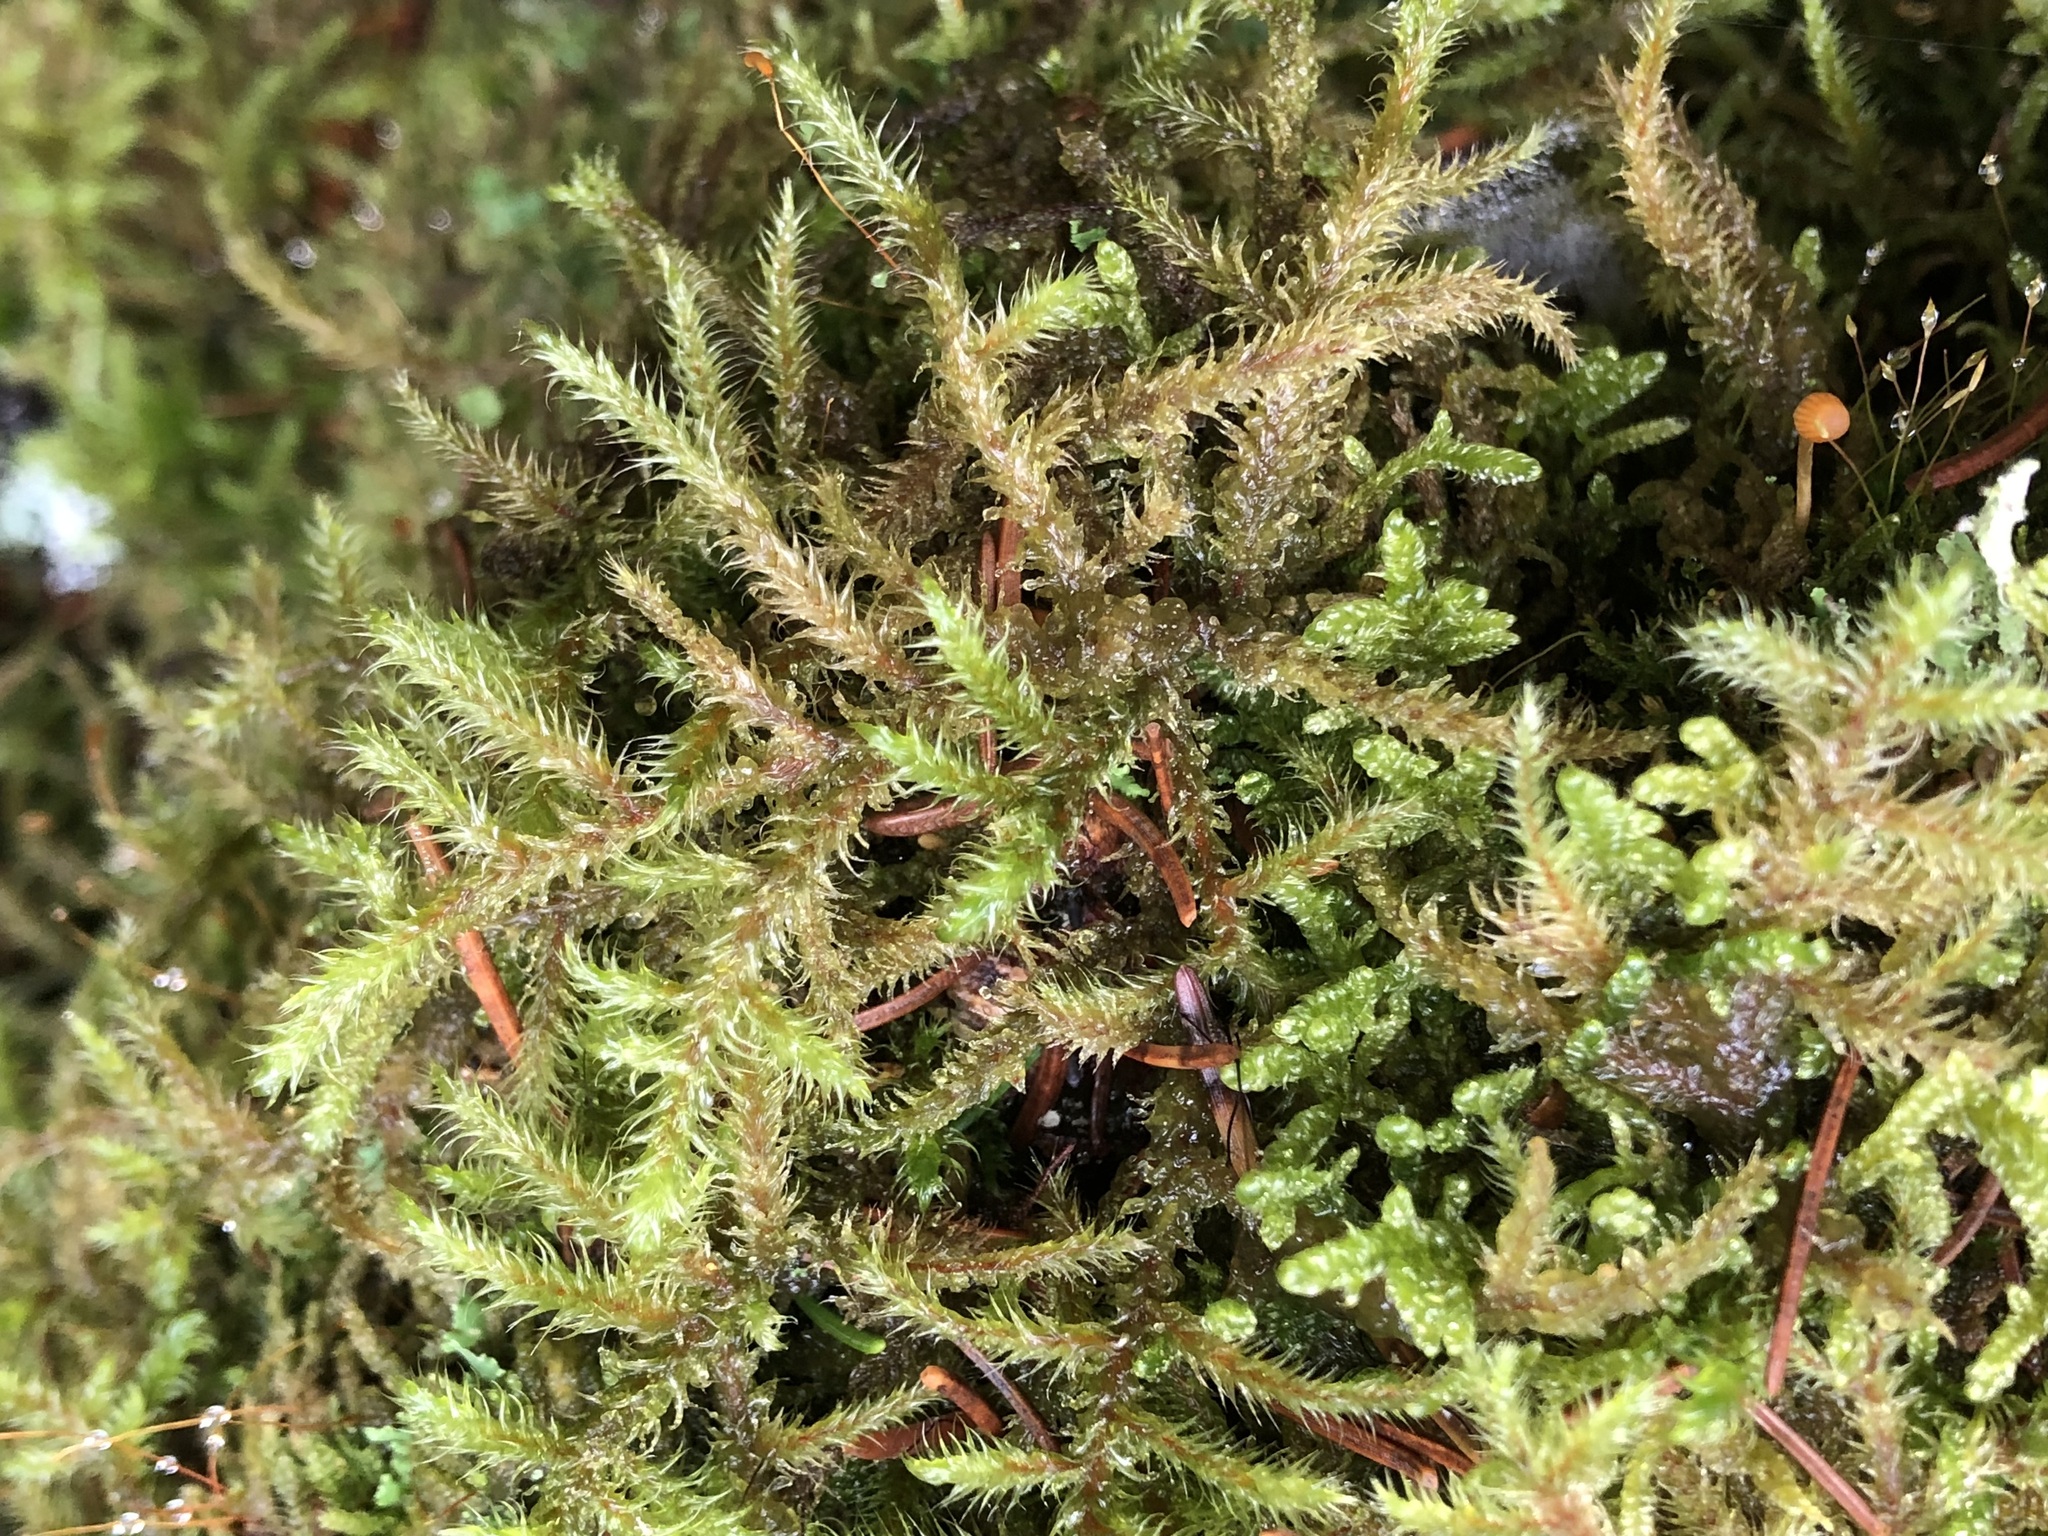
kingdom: Plantae
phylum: Bryophyta
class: Bryopsida
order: Hypnales
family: Hylocomiaceae
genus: Rhytidiadelphus
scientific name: Rhytidiadelphus loreus
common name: Lanky moss
